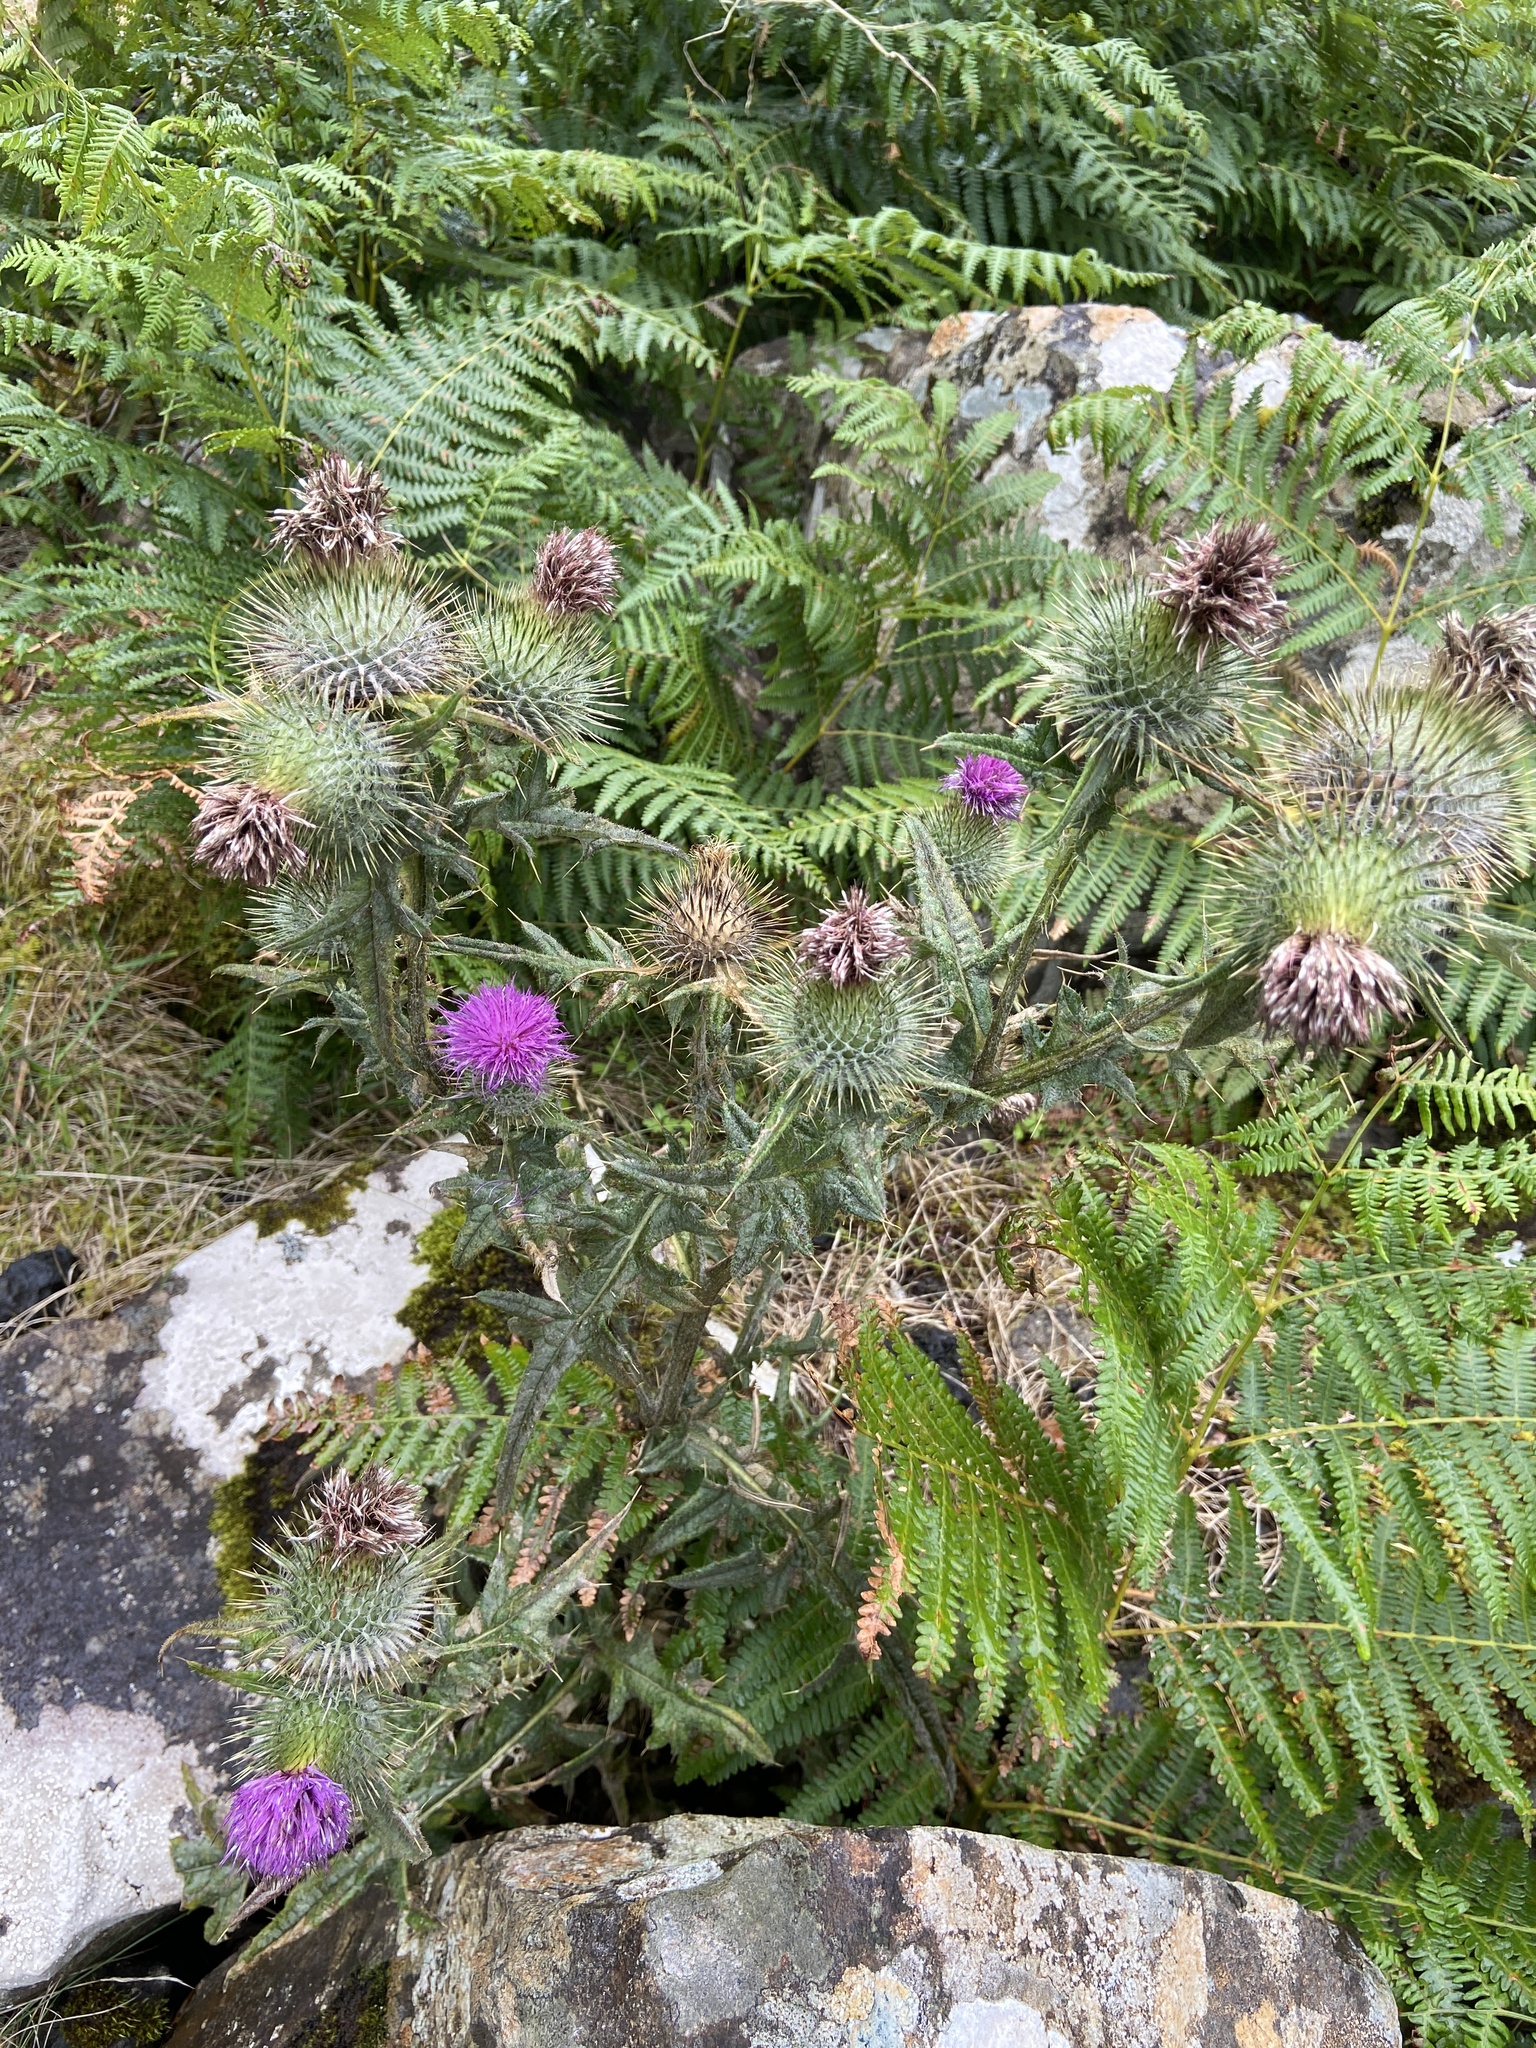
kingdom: Plantae
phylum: Tracheophyta
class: Magnoliopsida
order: Asterales
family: Asteraceae
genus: Cirsium
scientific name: Cirsium vulgare
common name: Bull thistle
